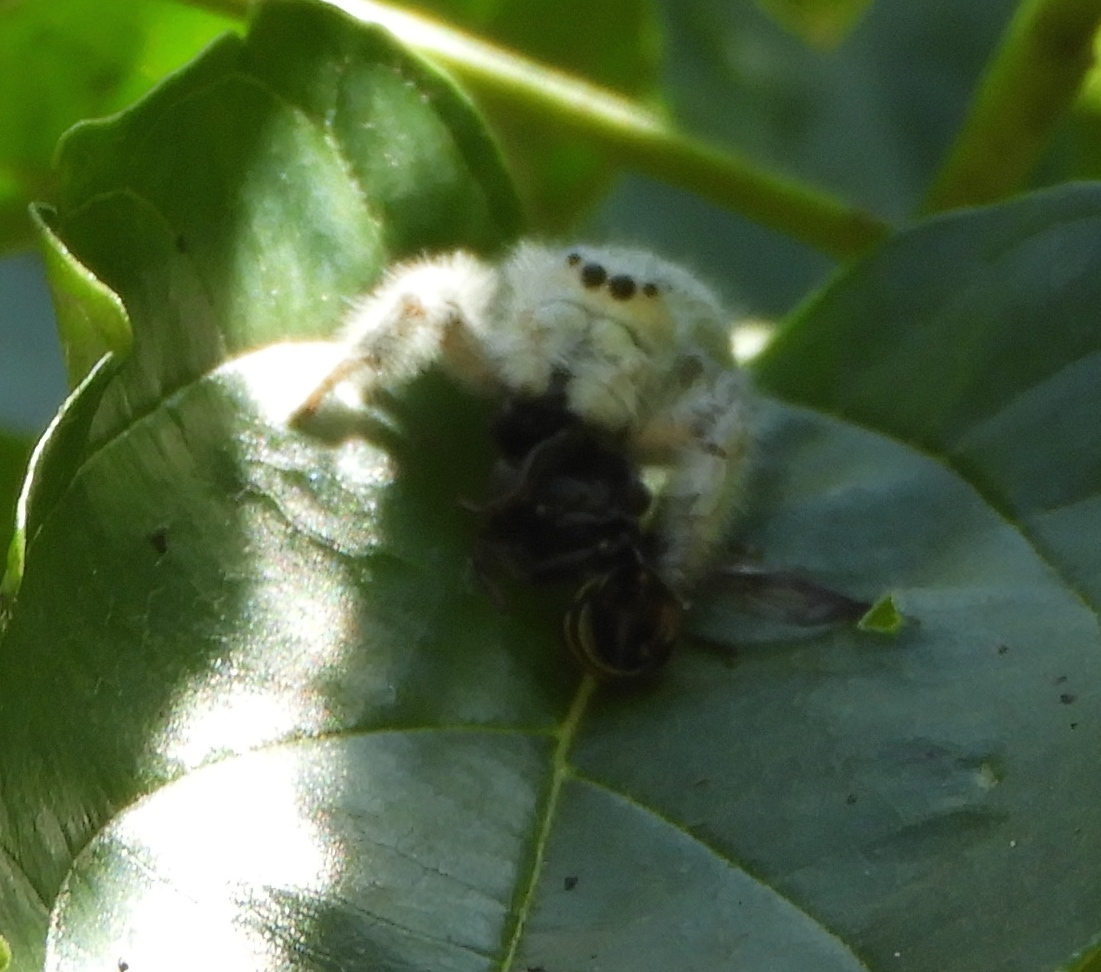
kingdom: Animalia
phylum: Arthropoda
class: Arachnida
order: Araneae
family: Salticidae
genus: Paraphidippus
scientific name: Paraphidippus fartilis
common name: Jumping spiders
